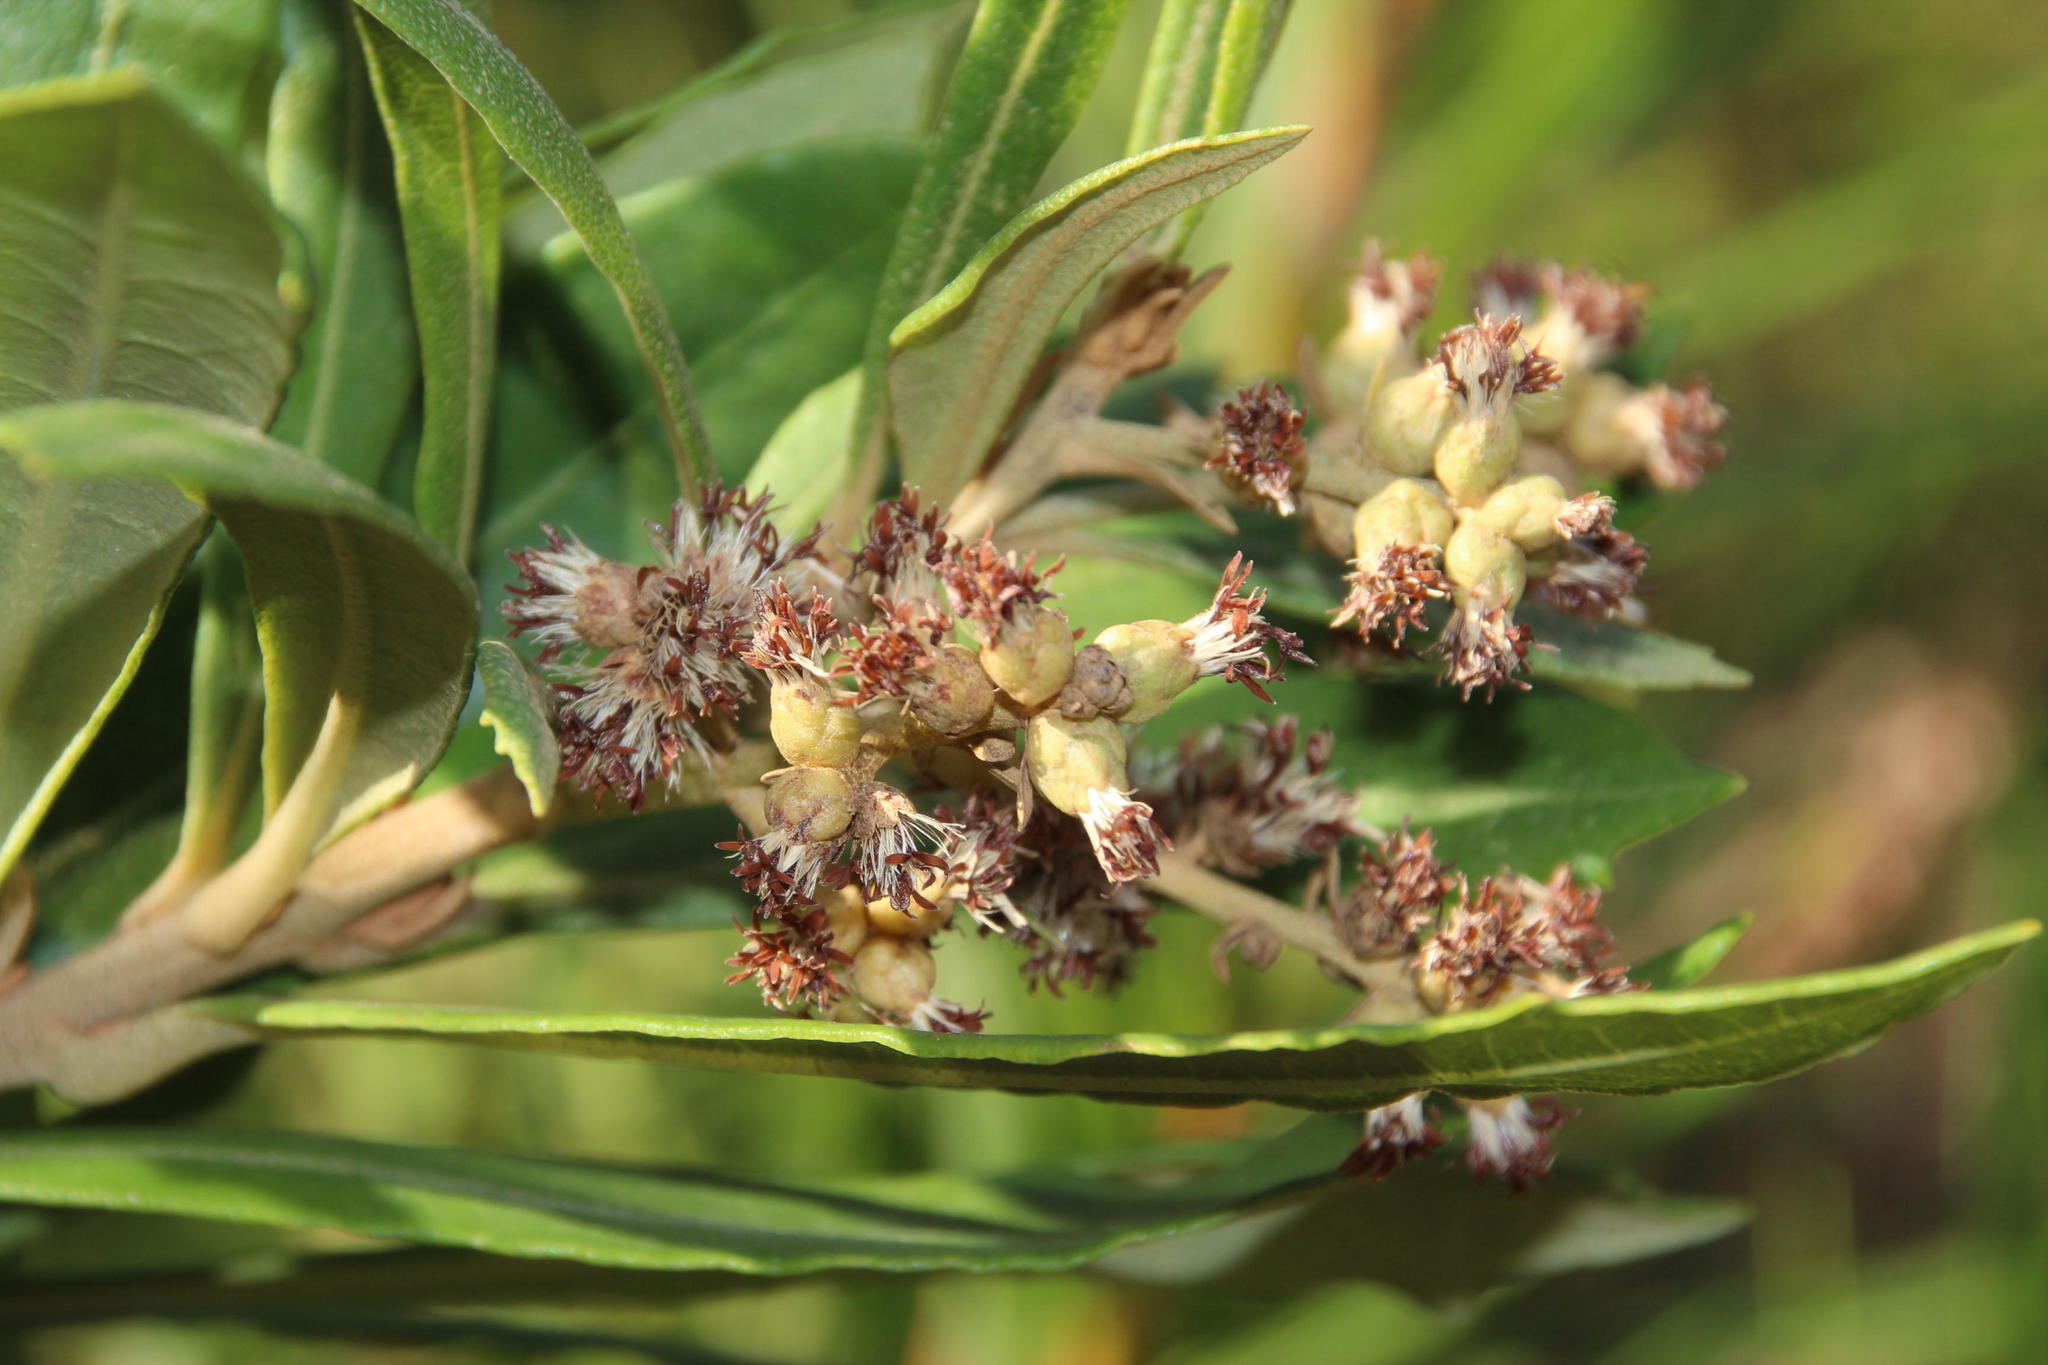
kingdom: Plantae
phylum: Tracheophyta
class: Magnoliopsida
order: Asterales
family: Asteraceae
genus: Brachylaena
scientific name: Brachylaena neriifolia
